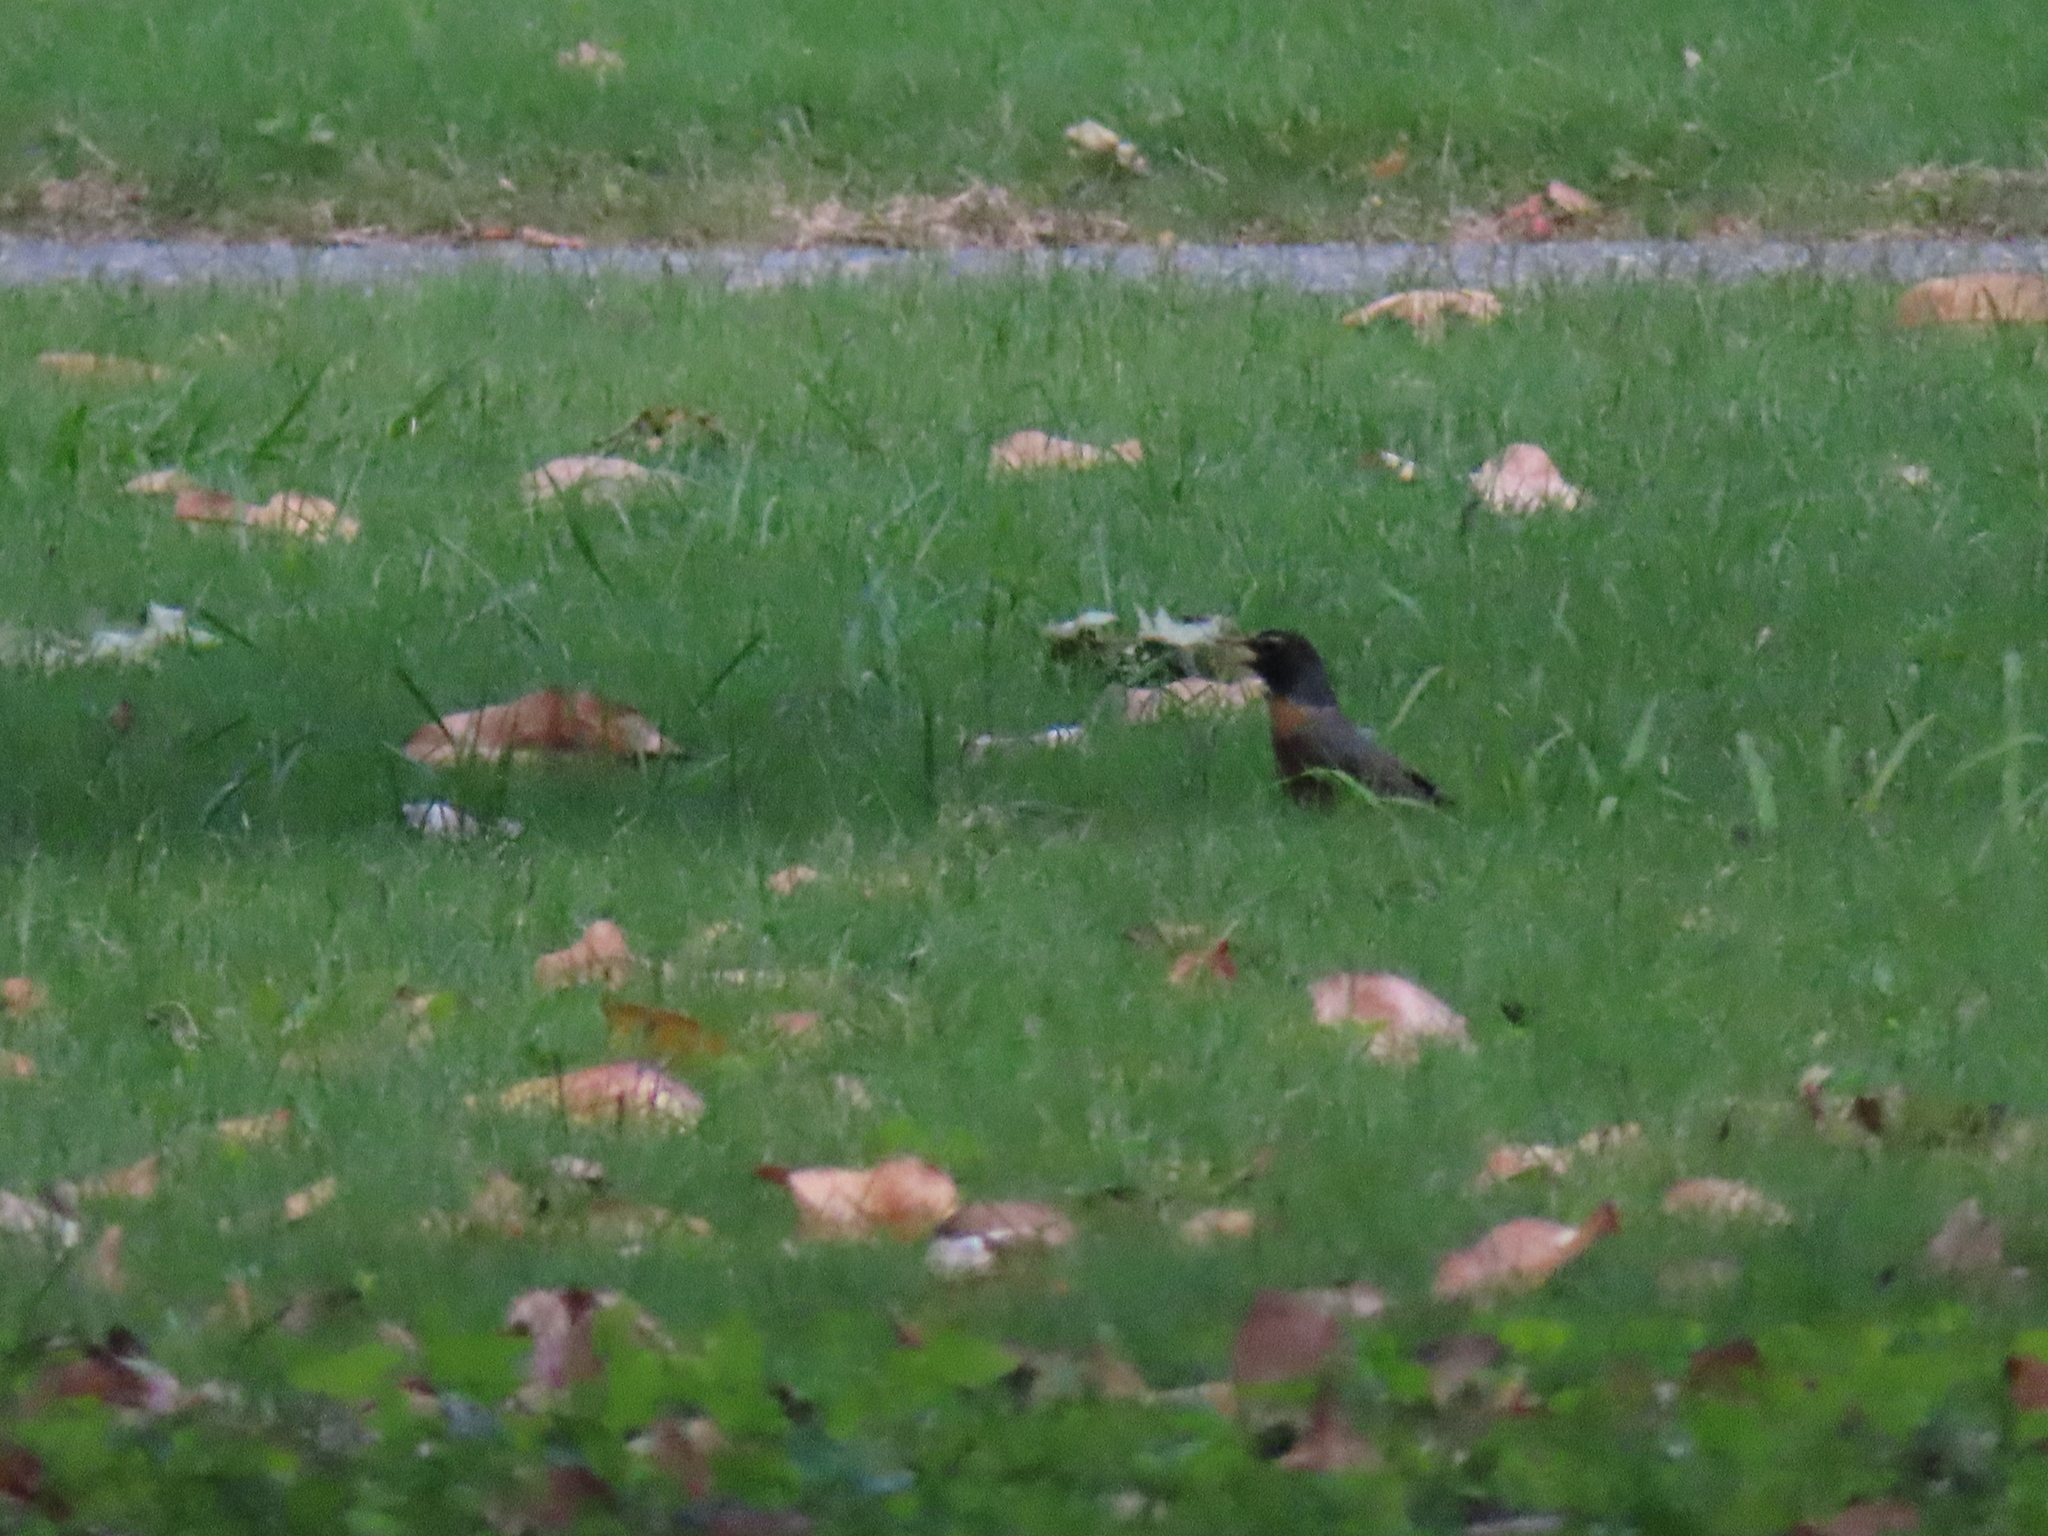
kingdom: Animalia
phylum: Chordata
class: Aves
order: Passeriformes
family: Turdidae
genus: Turdus
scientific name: Turdus migratorius
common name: American robin
